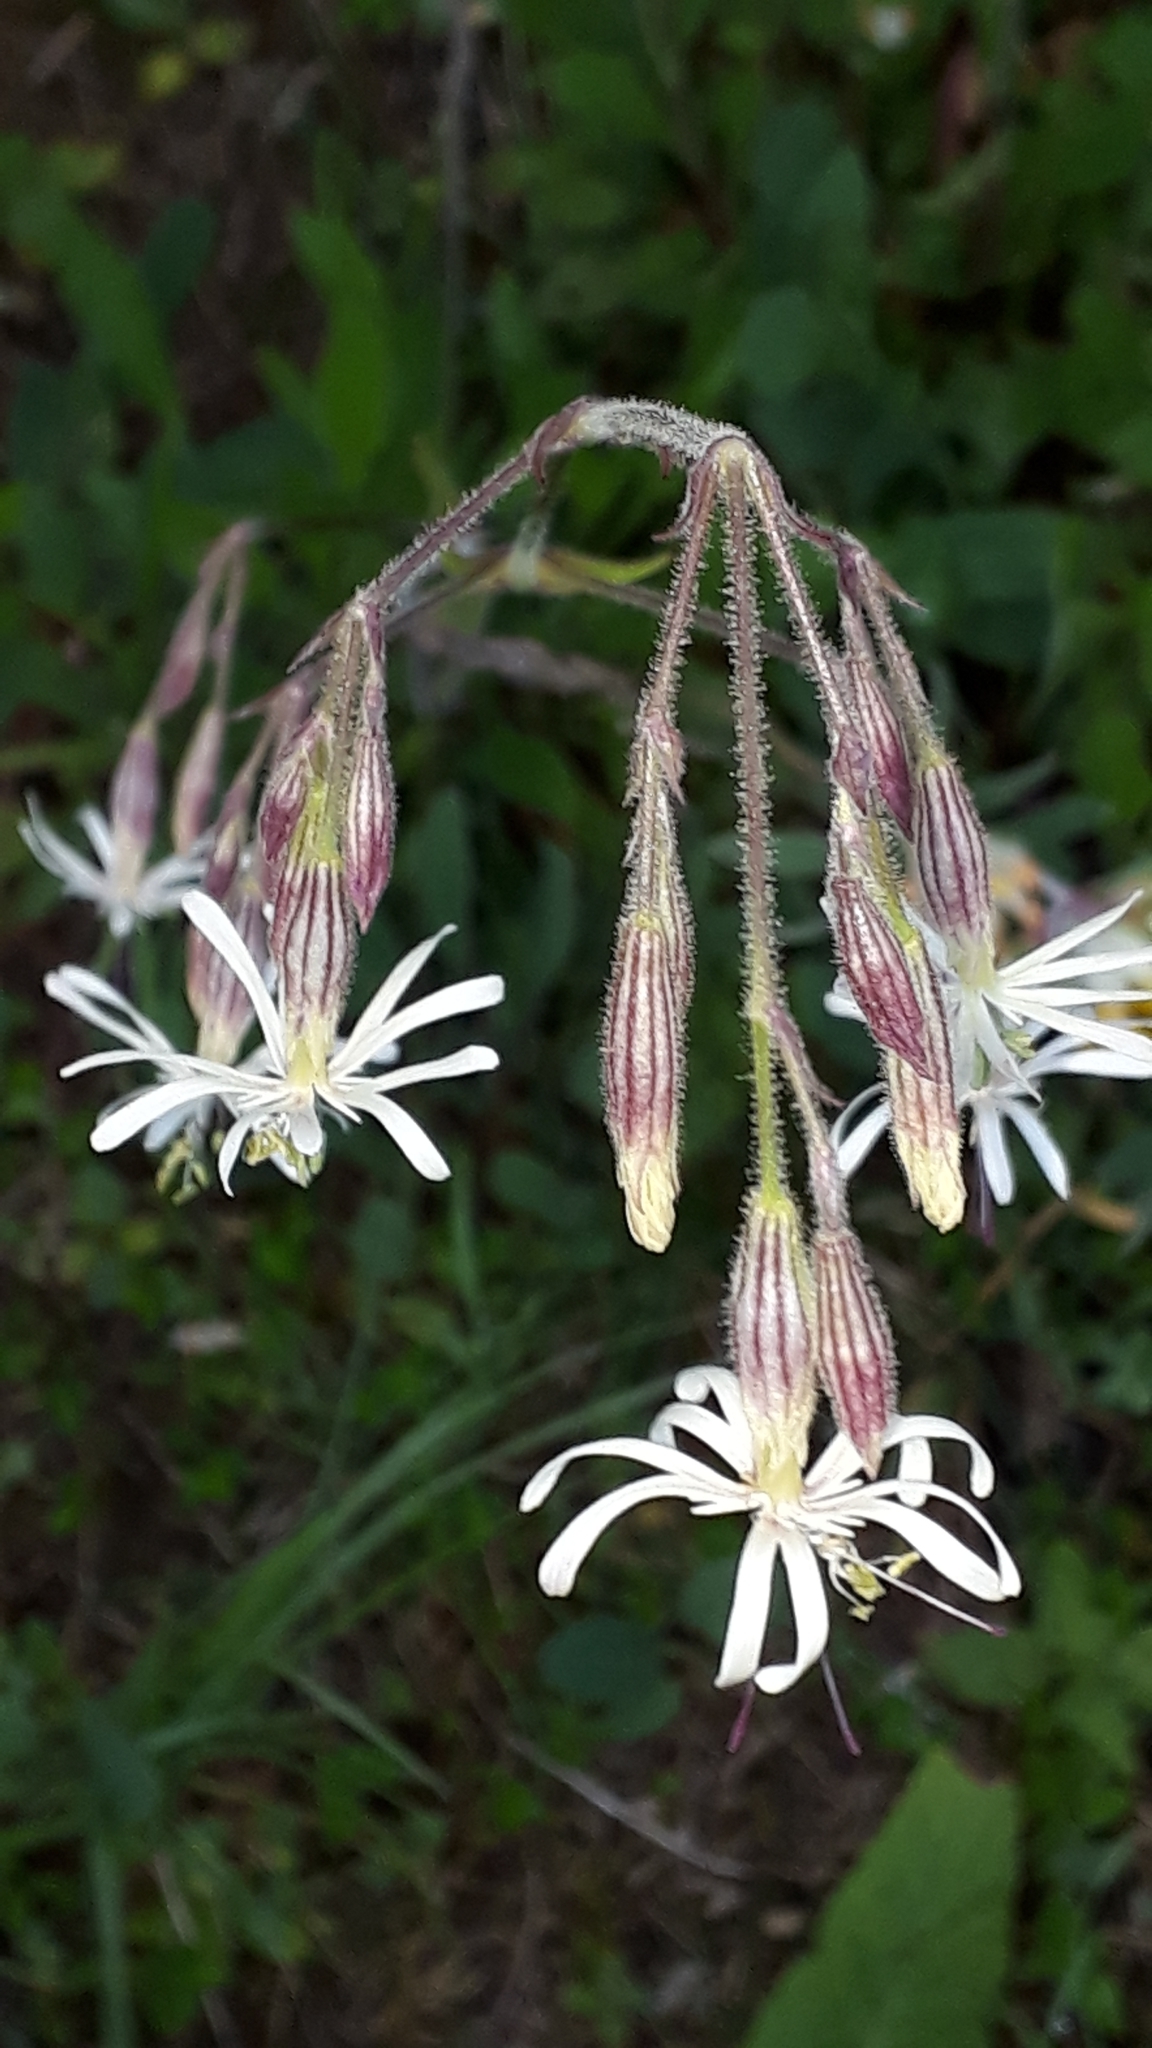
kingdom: Plantae
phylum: Tracheophyta
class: Magnoliopsida
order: Caryophyllales
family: Caryophyllaceae
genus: Silene
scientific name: Silene nutans
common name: Nottingham catchfly
